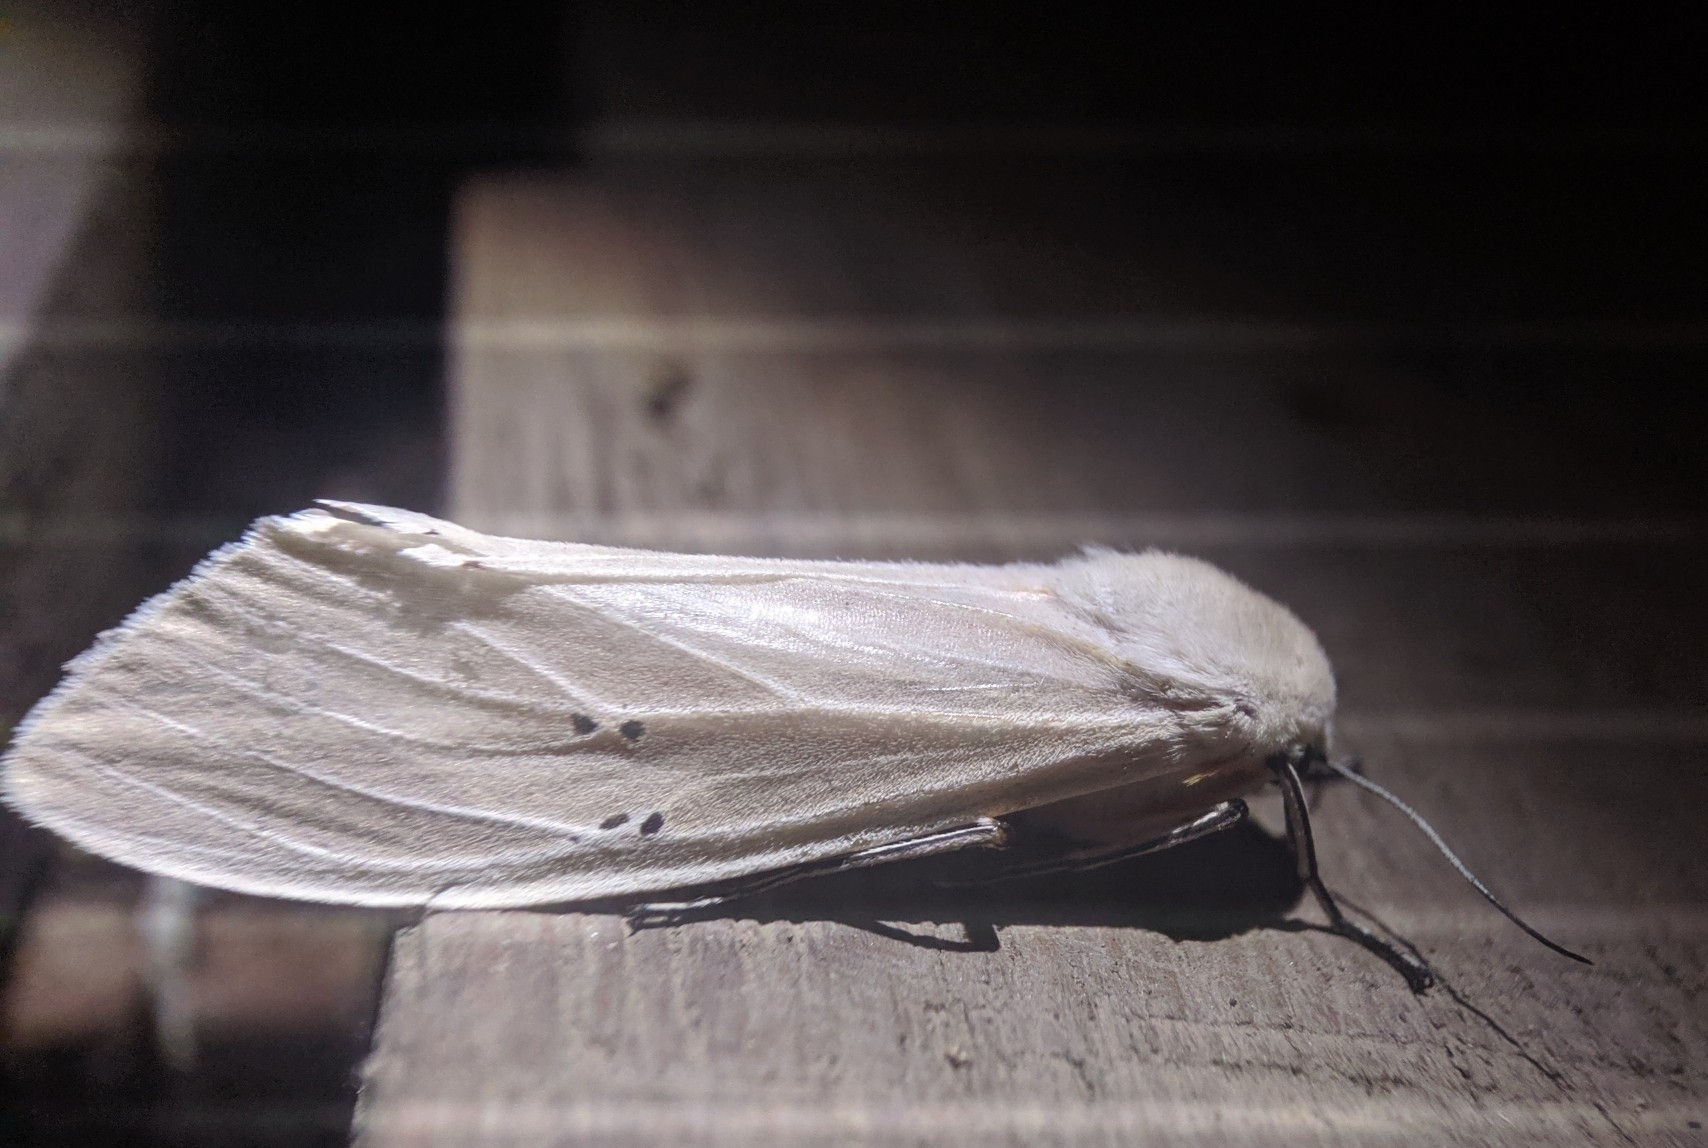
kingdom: Animalia
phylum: Arthropoda
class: Insecta
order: Lepidoptera
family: Erebidae
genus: Creatonotos
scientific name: Creatonotos transiens
